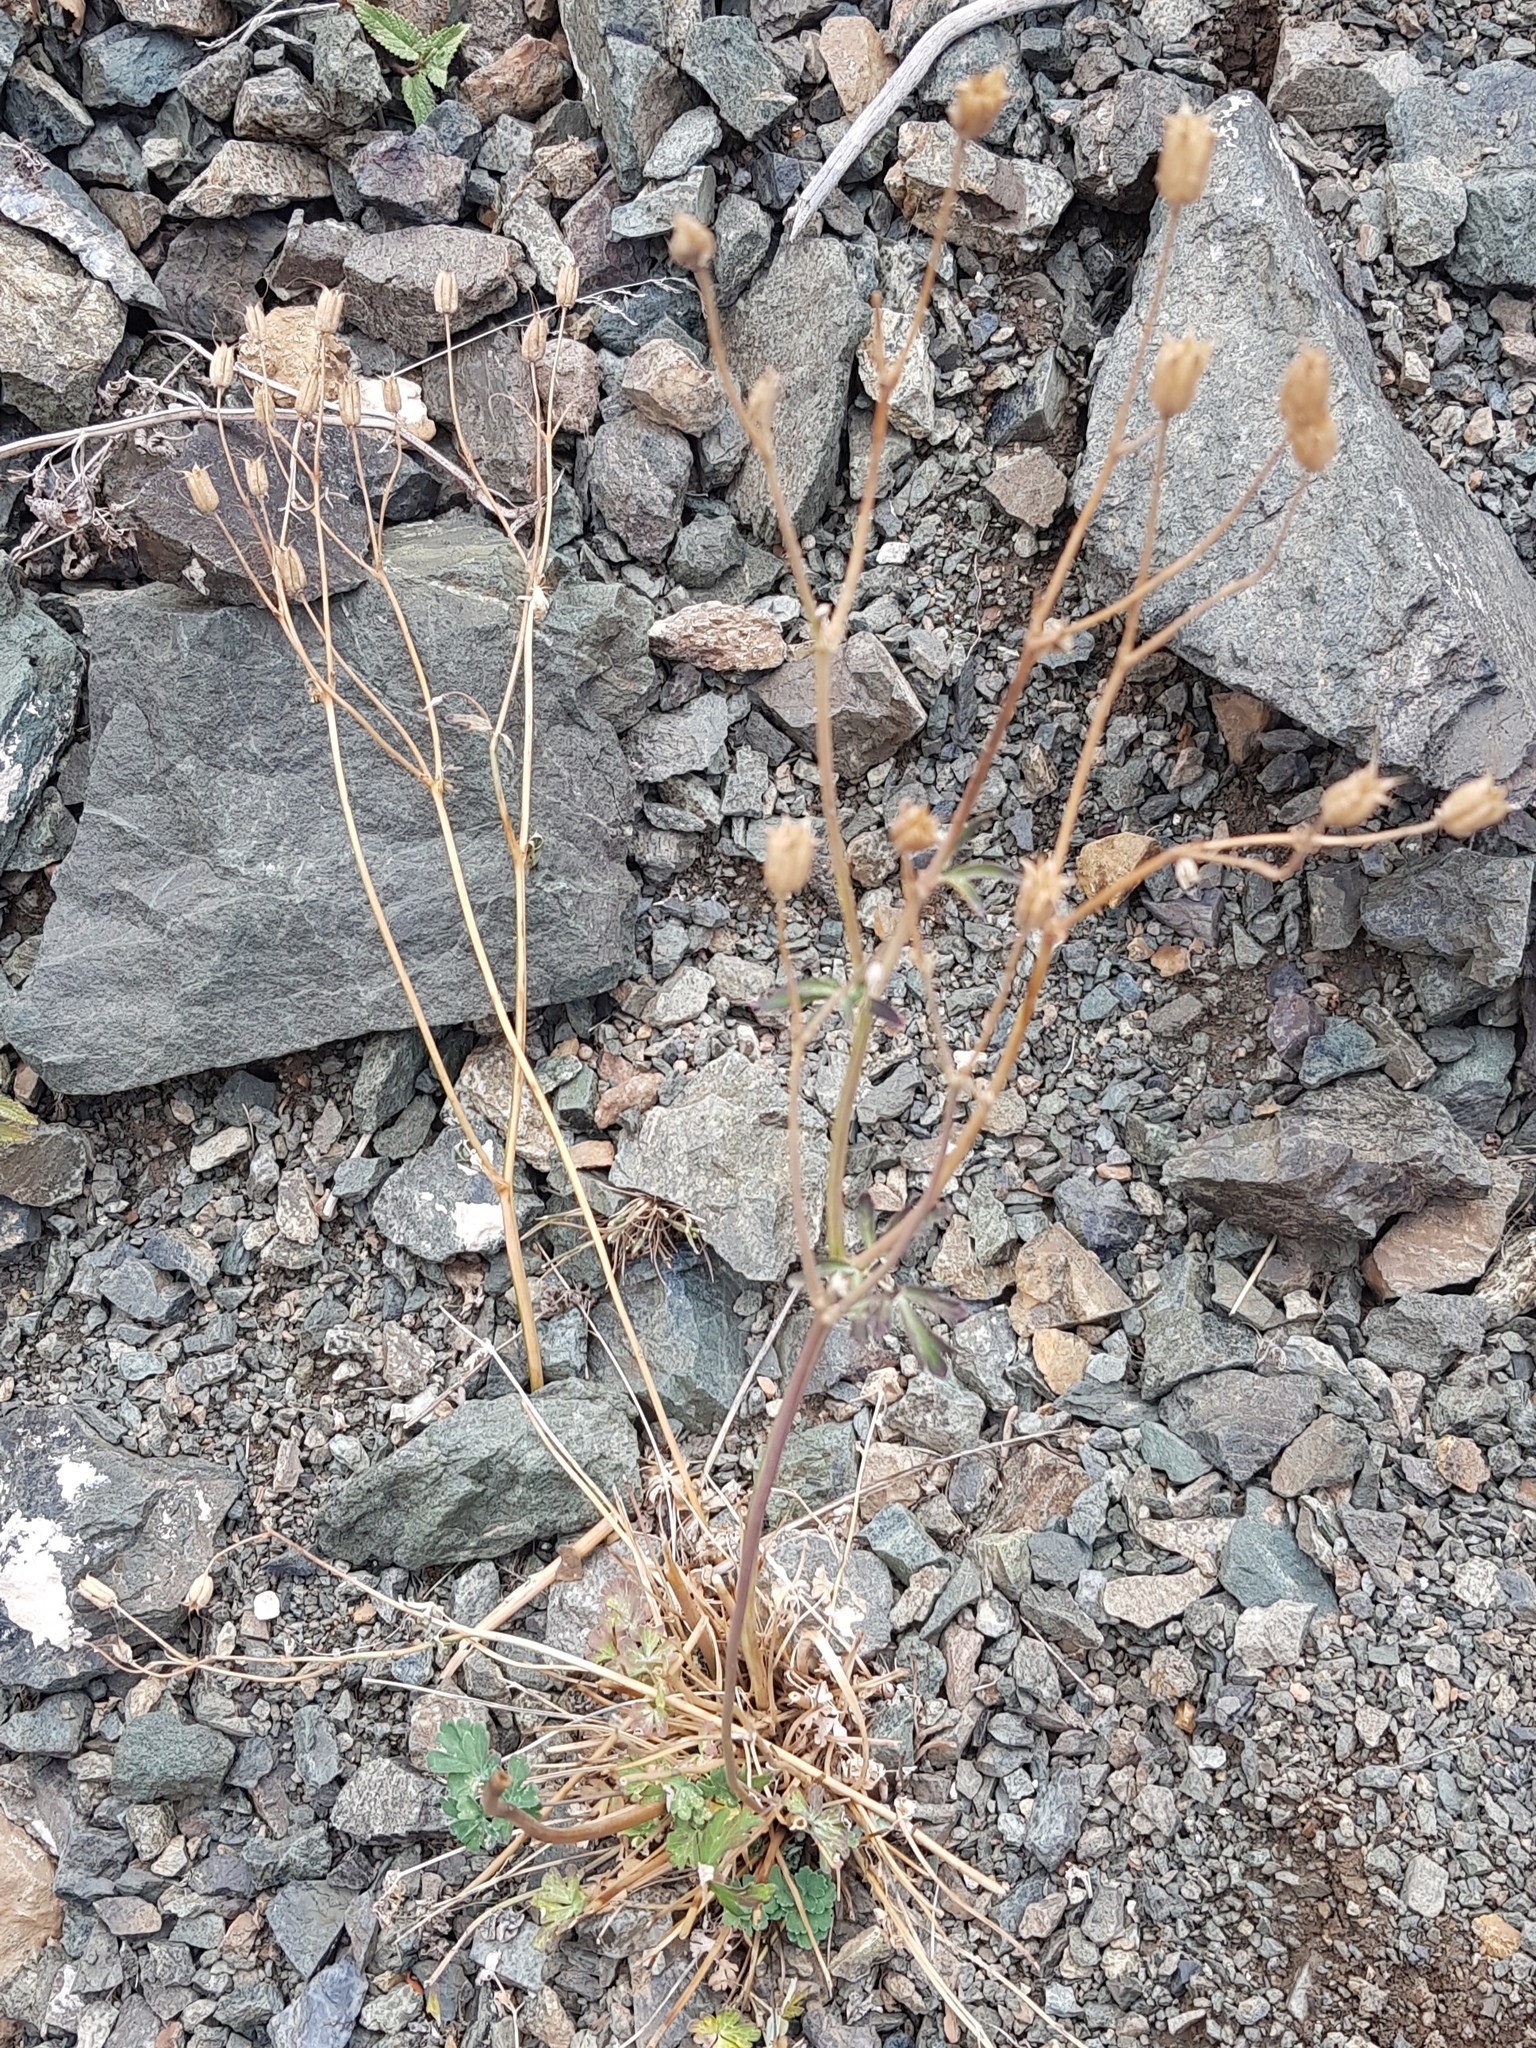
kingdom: Plantae
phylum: Tracheophyta
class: Magnoliopsida
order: Ranunculales
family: Ranunculaceae
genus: Aquilegia
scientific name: Aquilegia viridiflora
